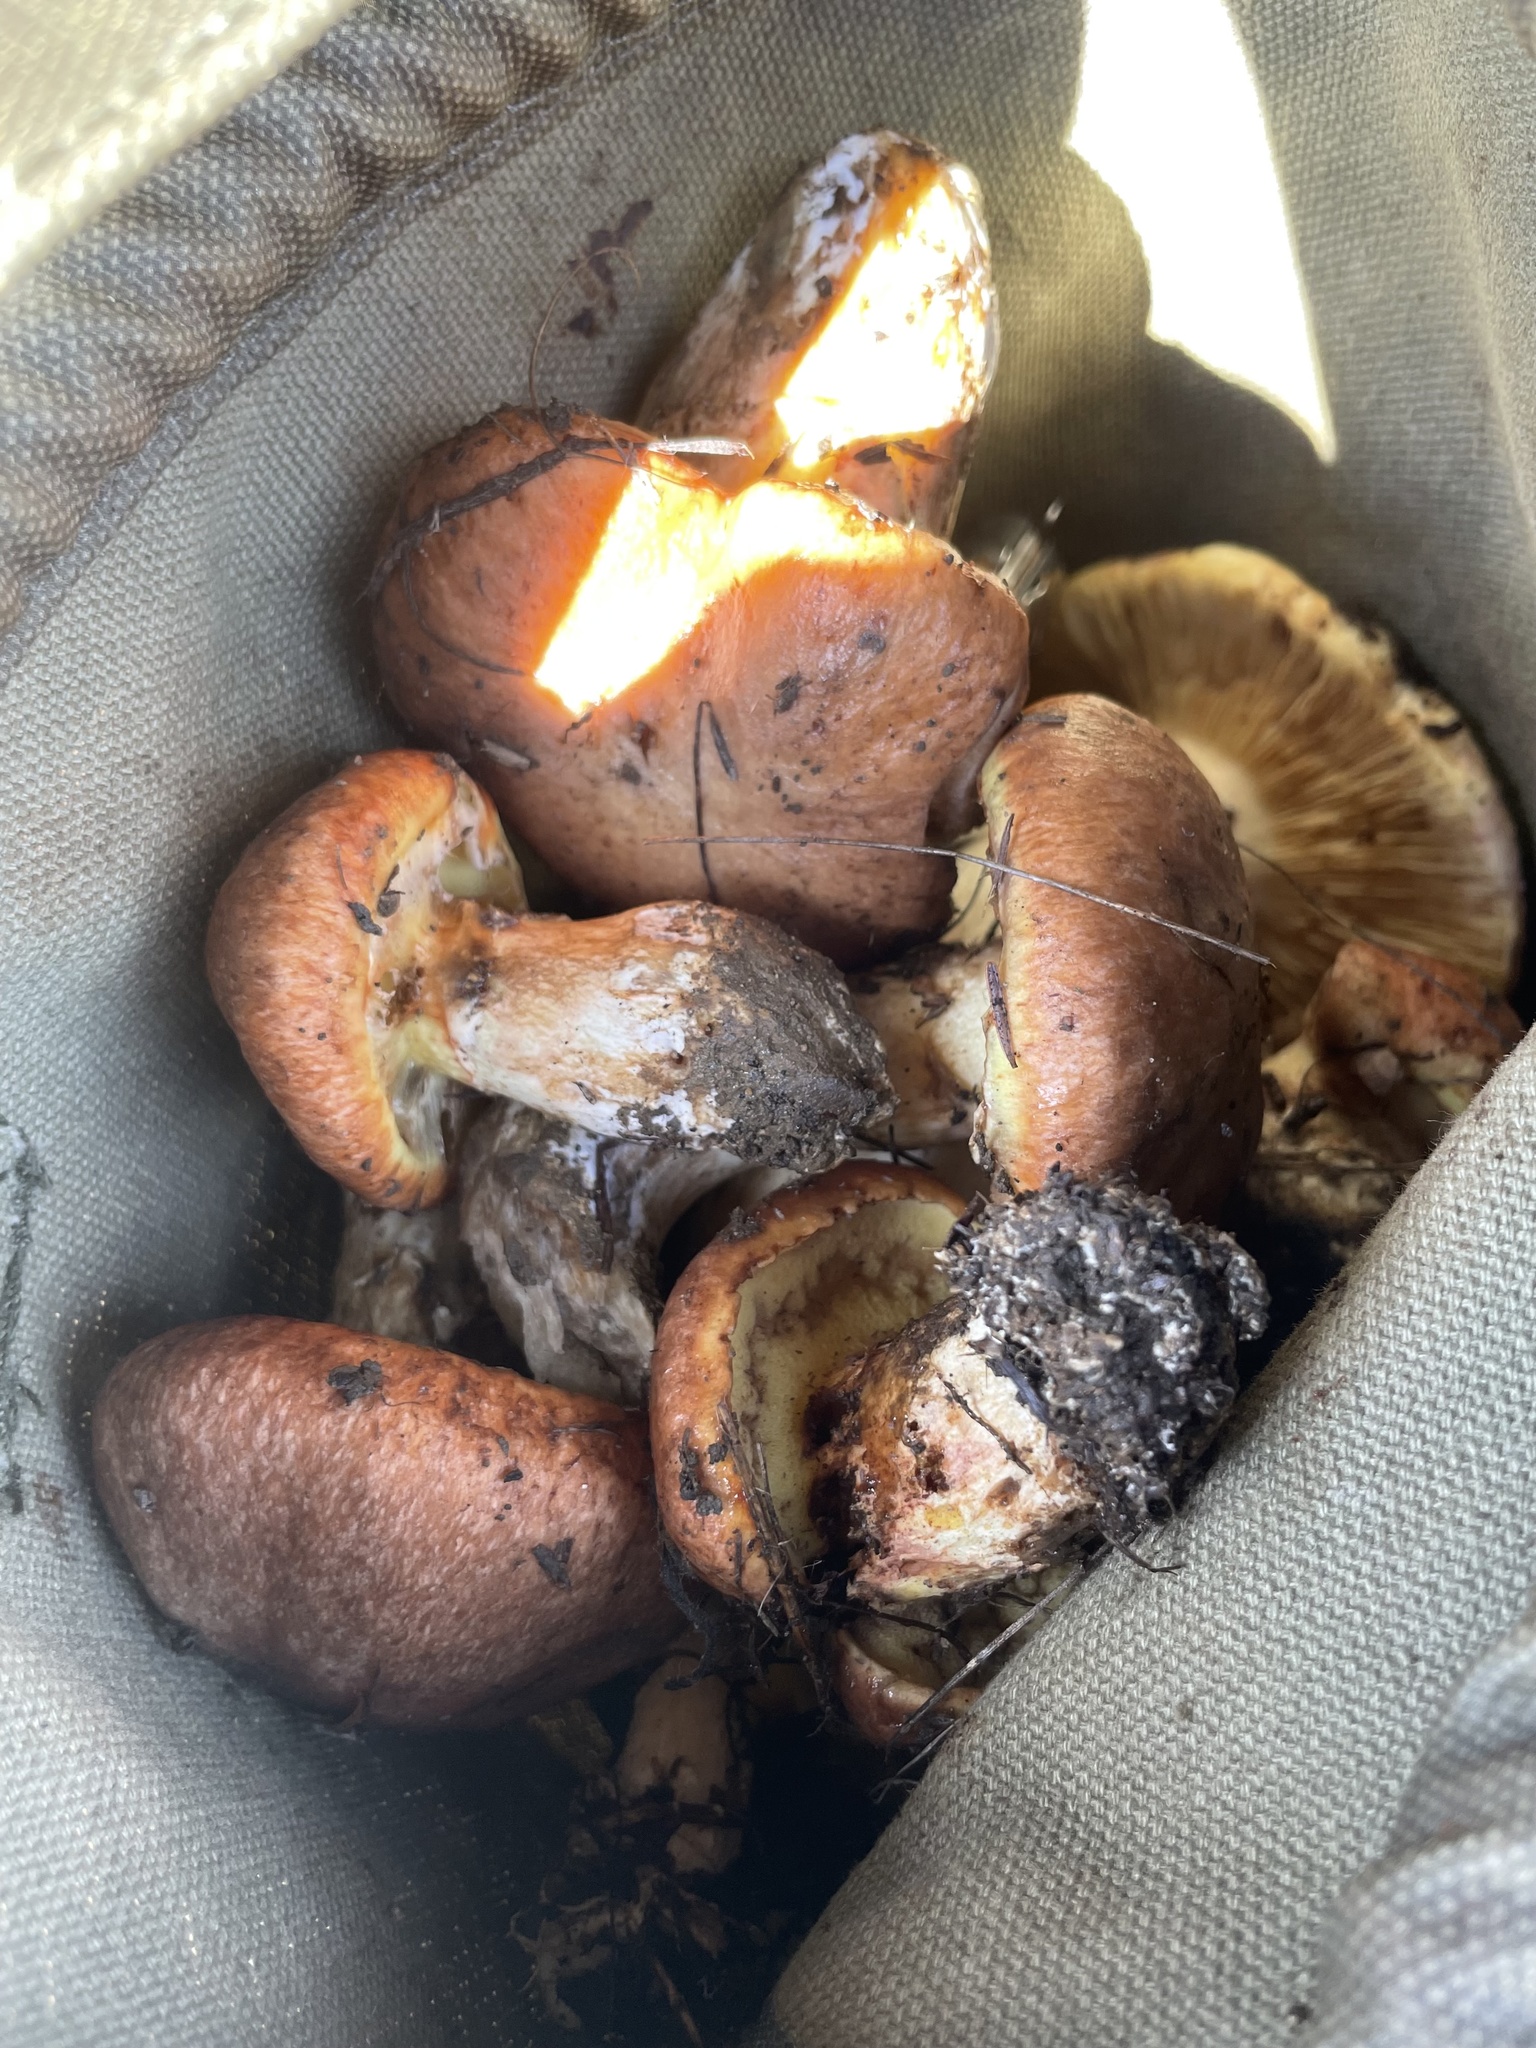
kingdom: Fungi
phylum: Basidiomycota
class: Agaricomycetes
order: Boletales
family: Suillaceae
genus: Suillus
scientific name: Suillus ponderosus
